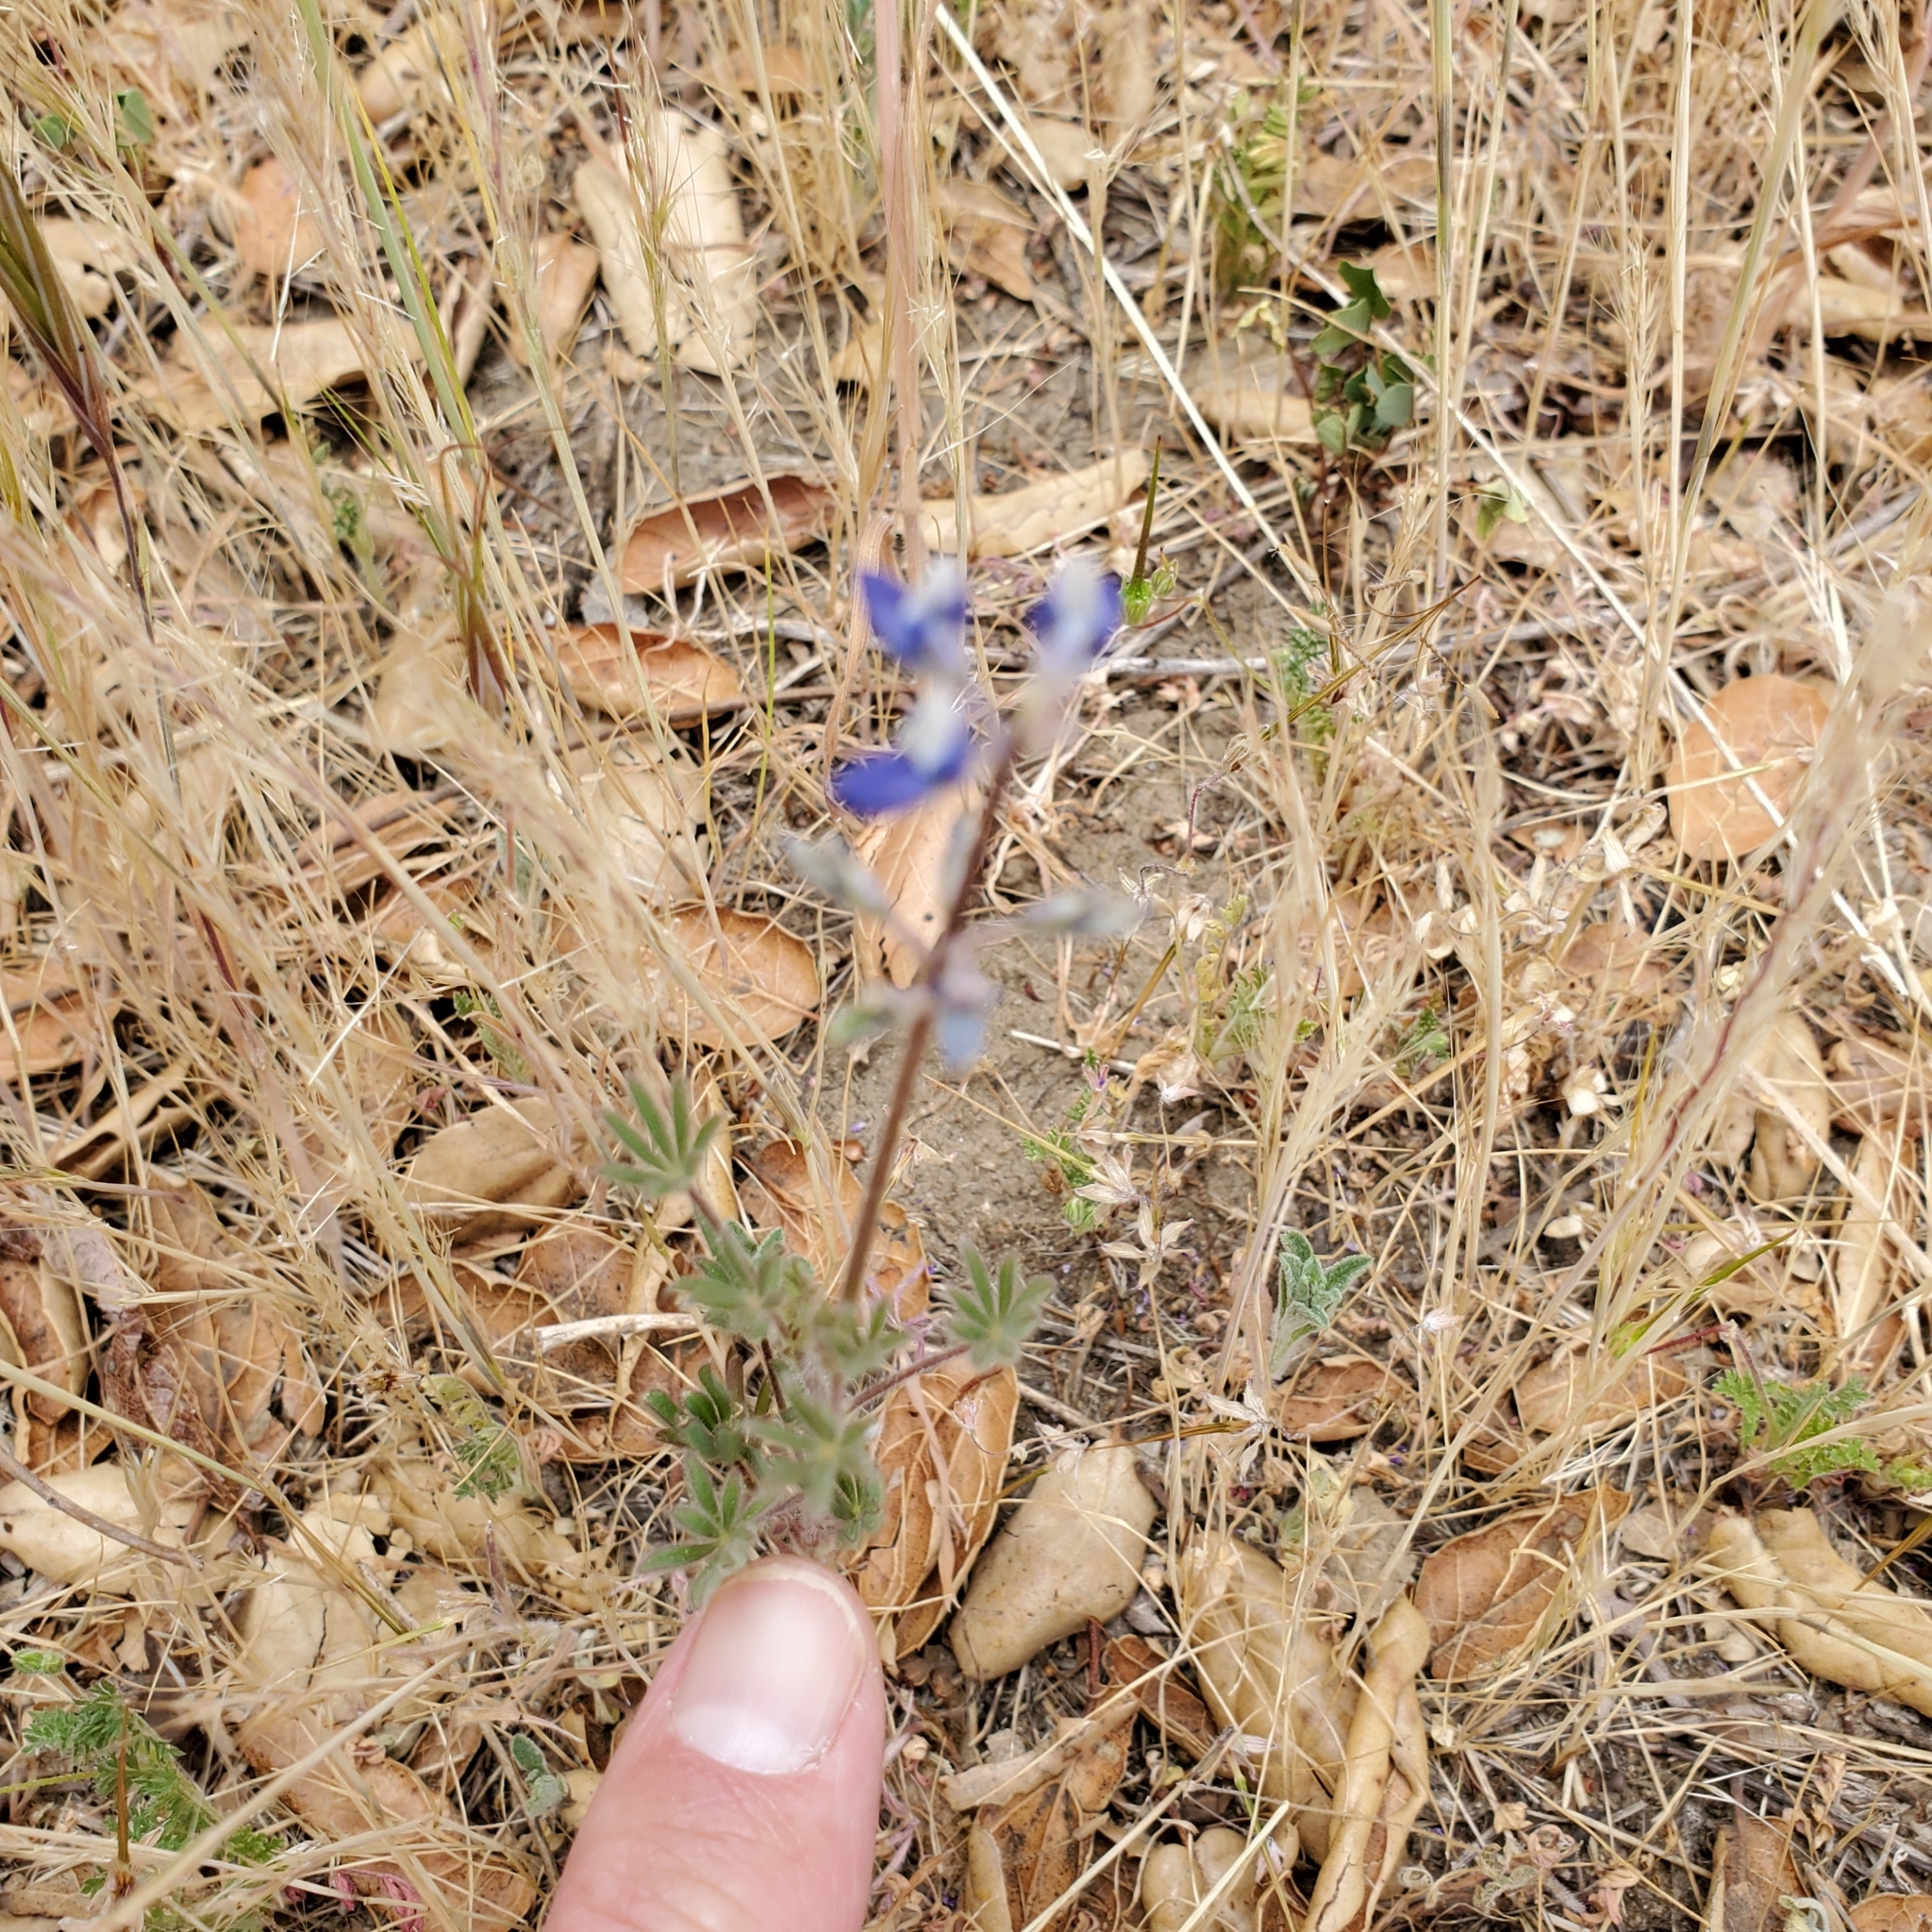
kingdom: Plantae
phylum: Tracheophyta
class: Magnoliopsida
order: Fabales
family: Fabaceae
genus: Lupinus
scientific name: Lupinus bicolor
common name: Miniature lupine
